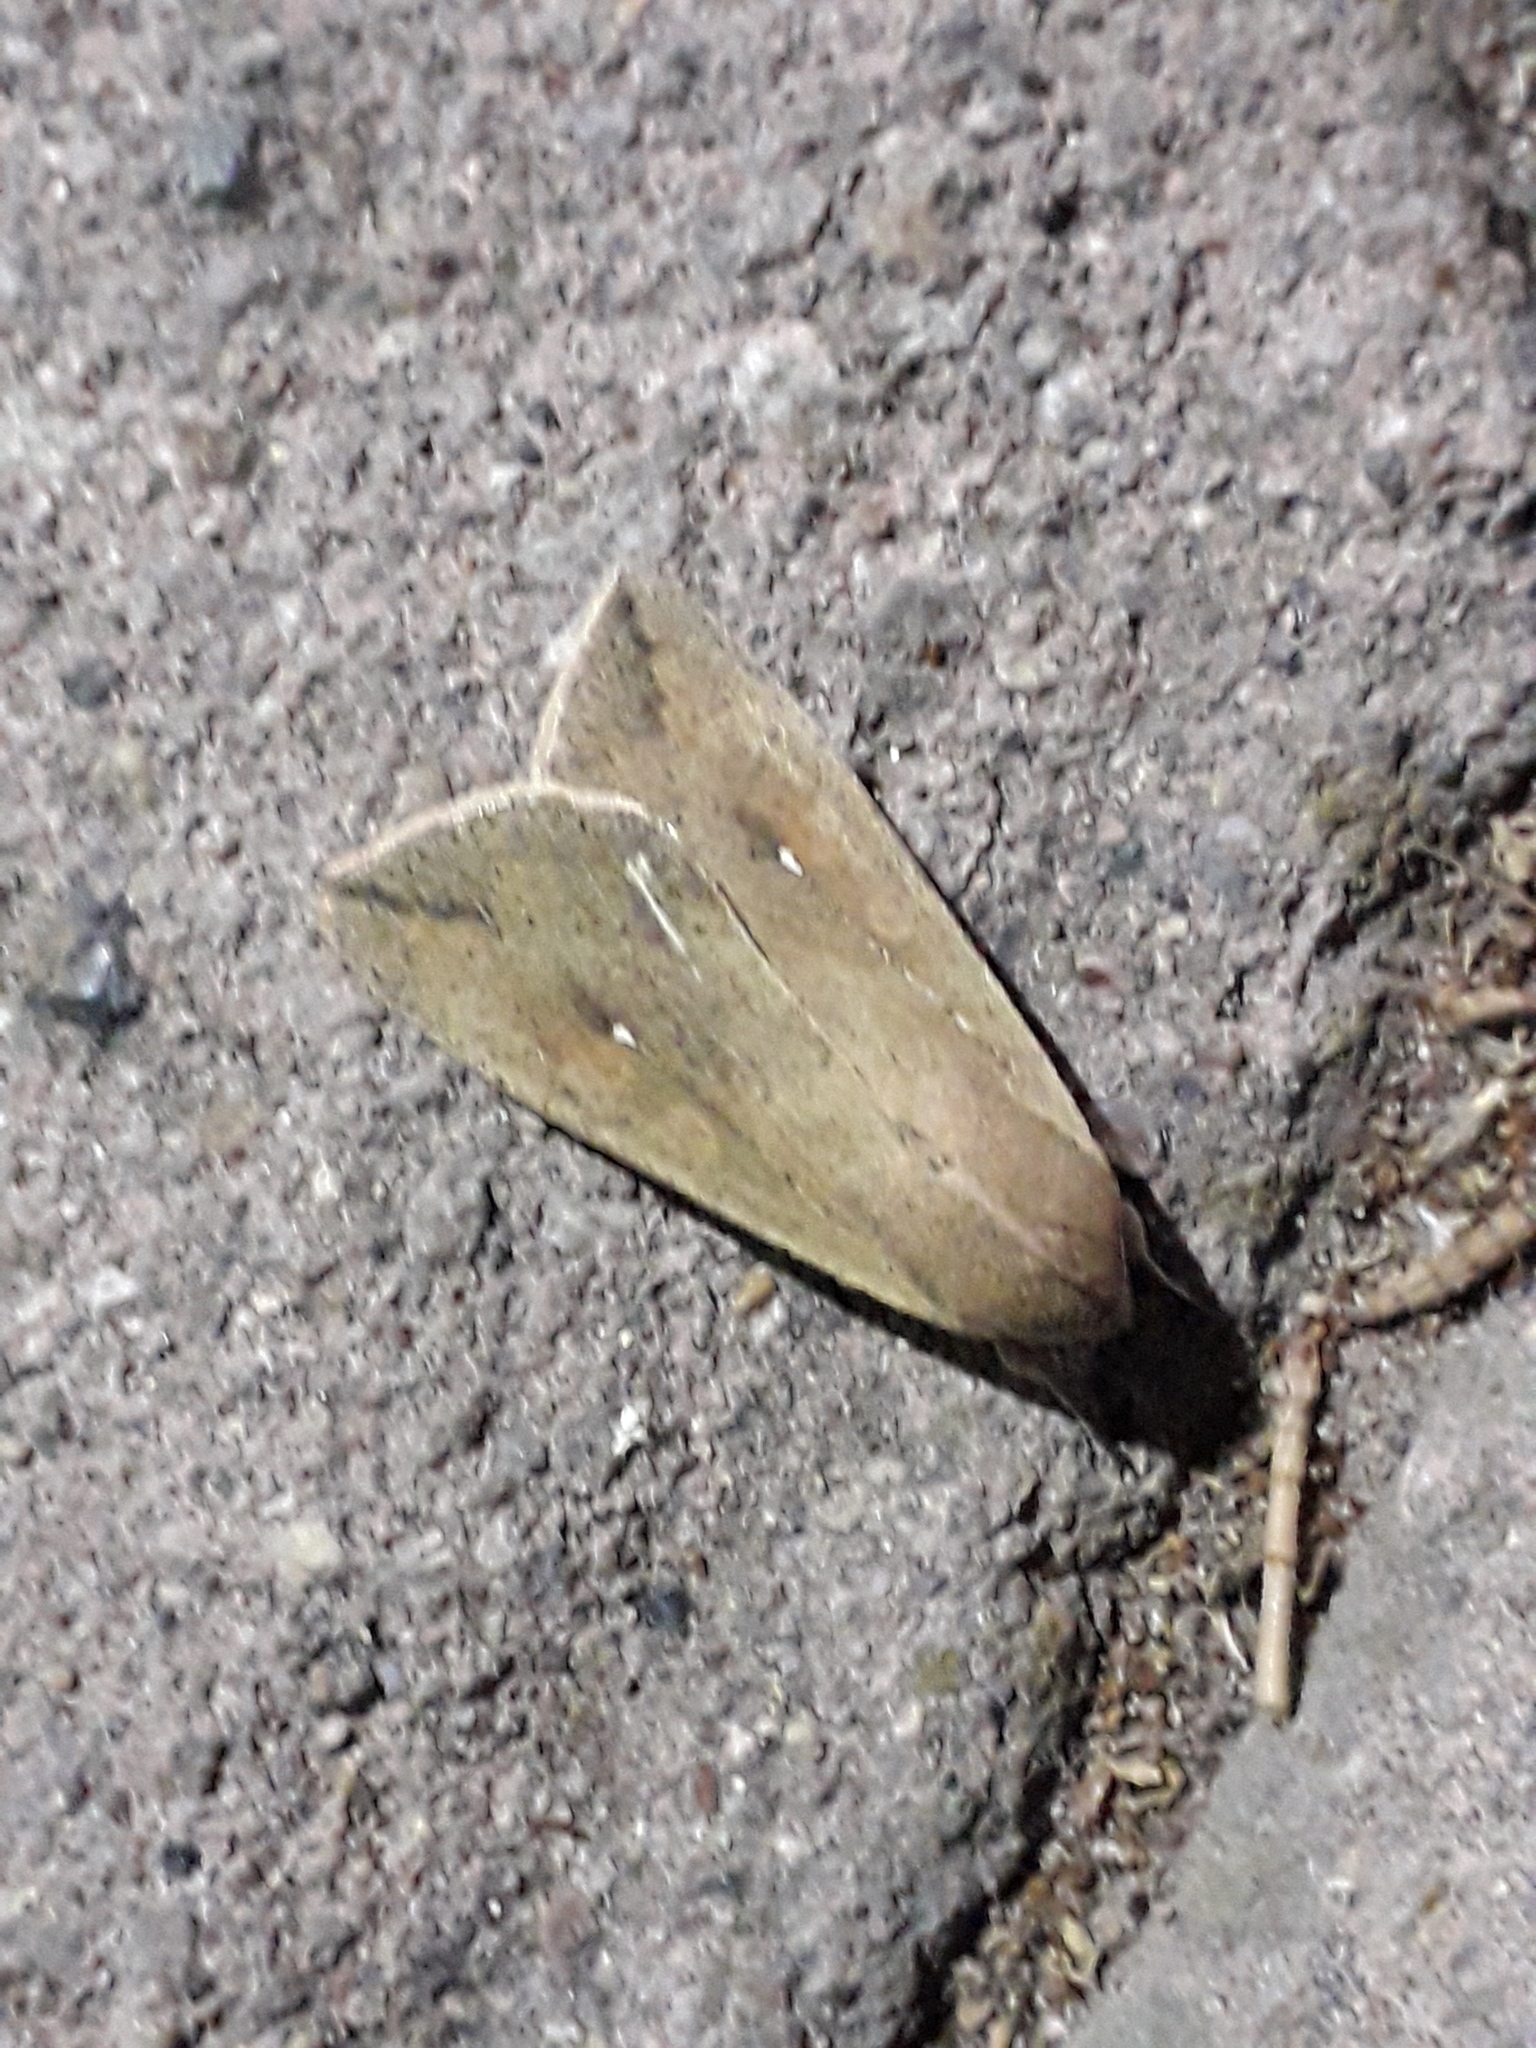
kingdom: Animalia
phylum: Arthropoda
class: Insecta
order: Lepidoptera
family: Noctuidae
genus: Mythimna
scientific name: Mythimna unipuncta
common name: White-speck
